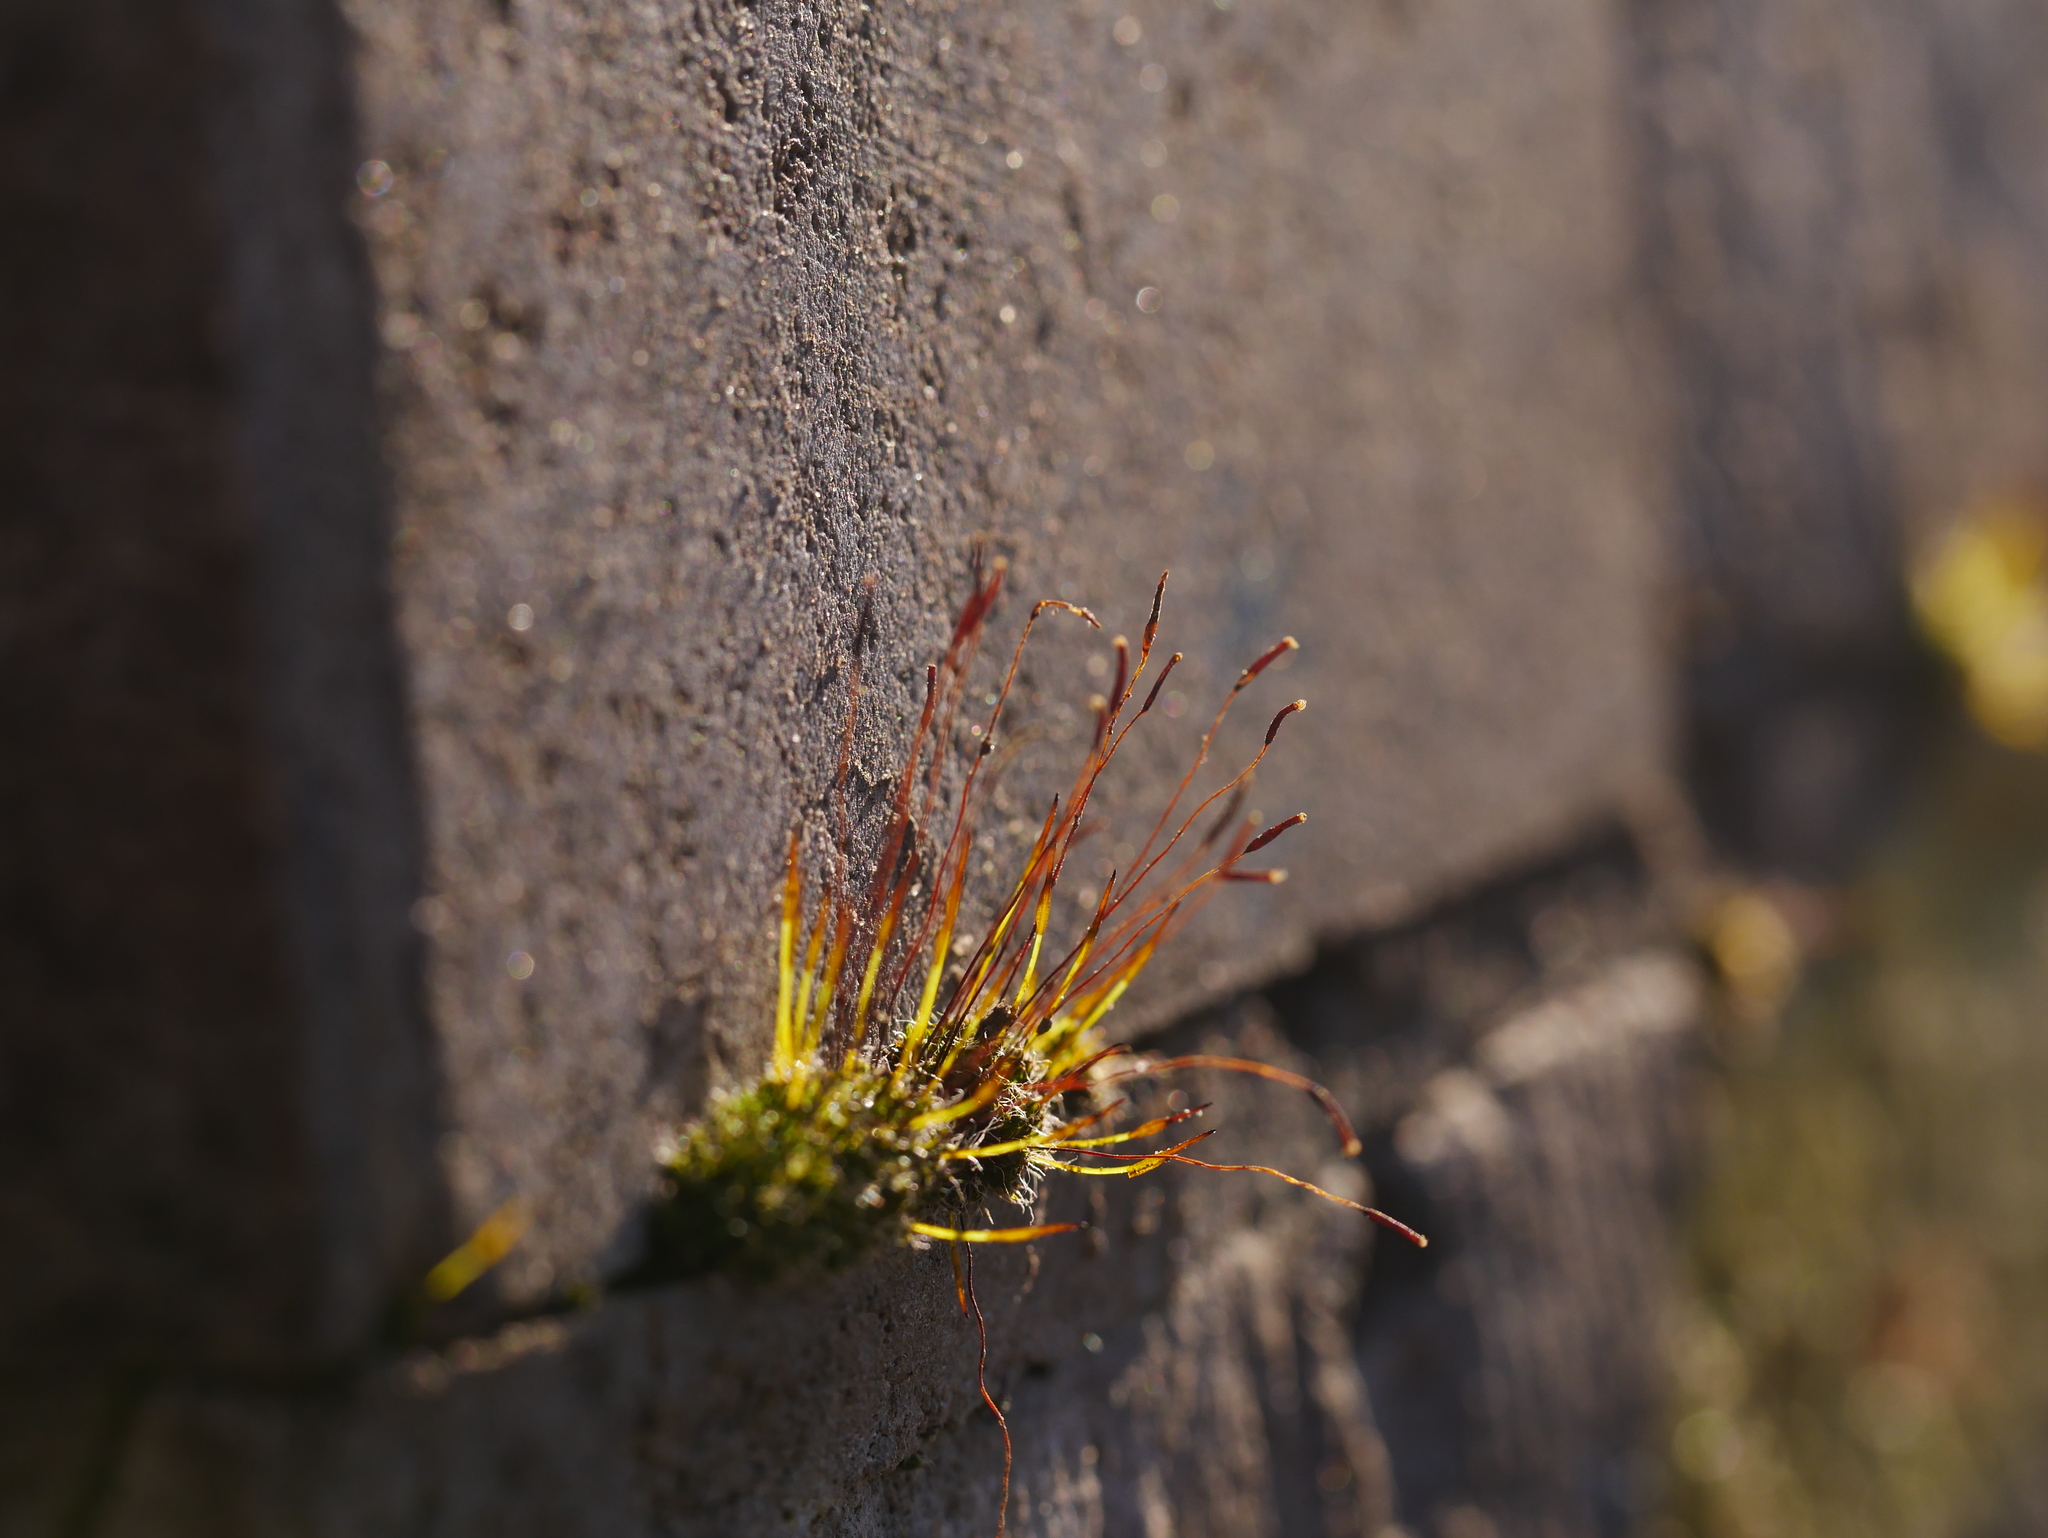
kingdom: Plantae
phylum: Bryophyta
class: Bryopsida
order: Pottiales
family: Pottiaceae
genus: Tortula
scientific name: Tortula muralis
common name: Wall screw-moss
